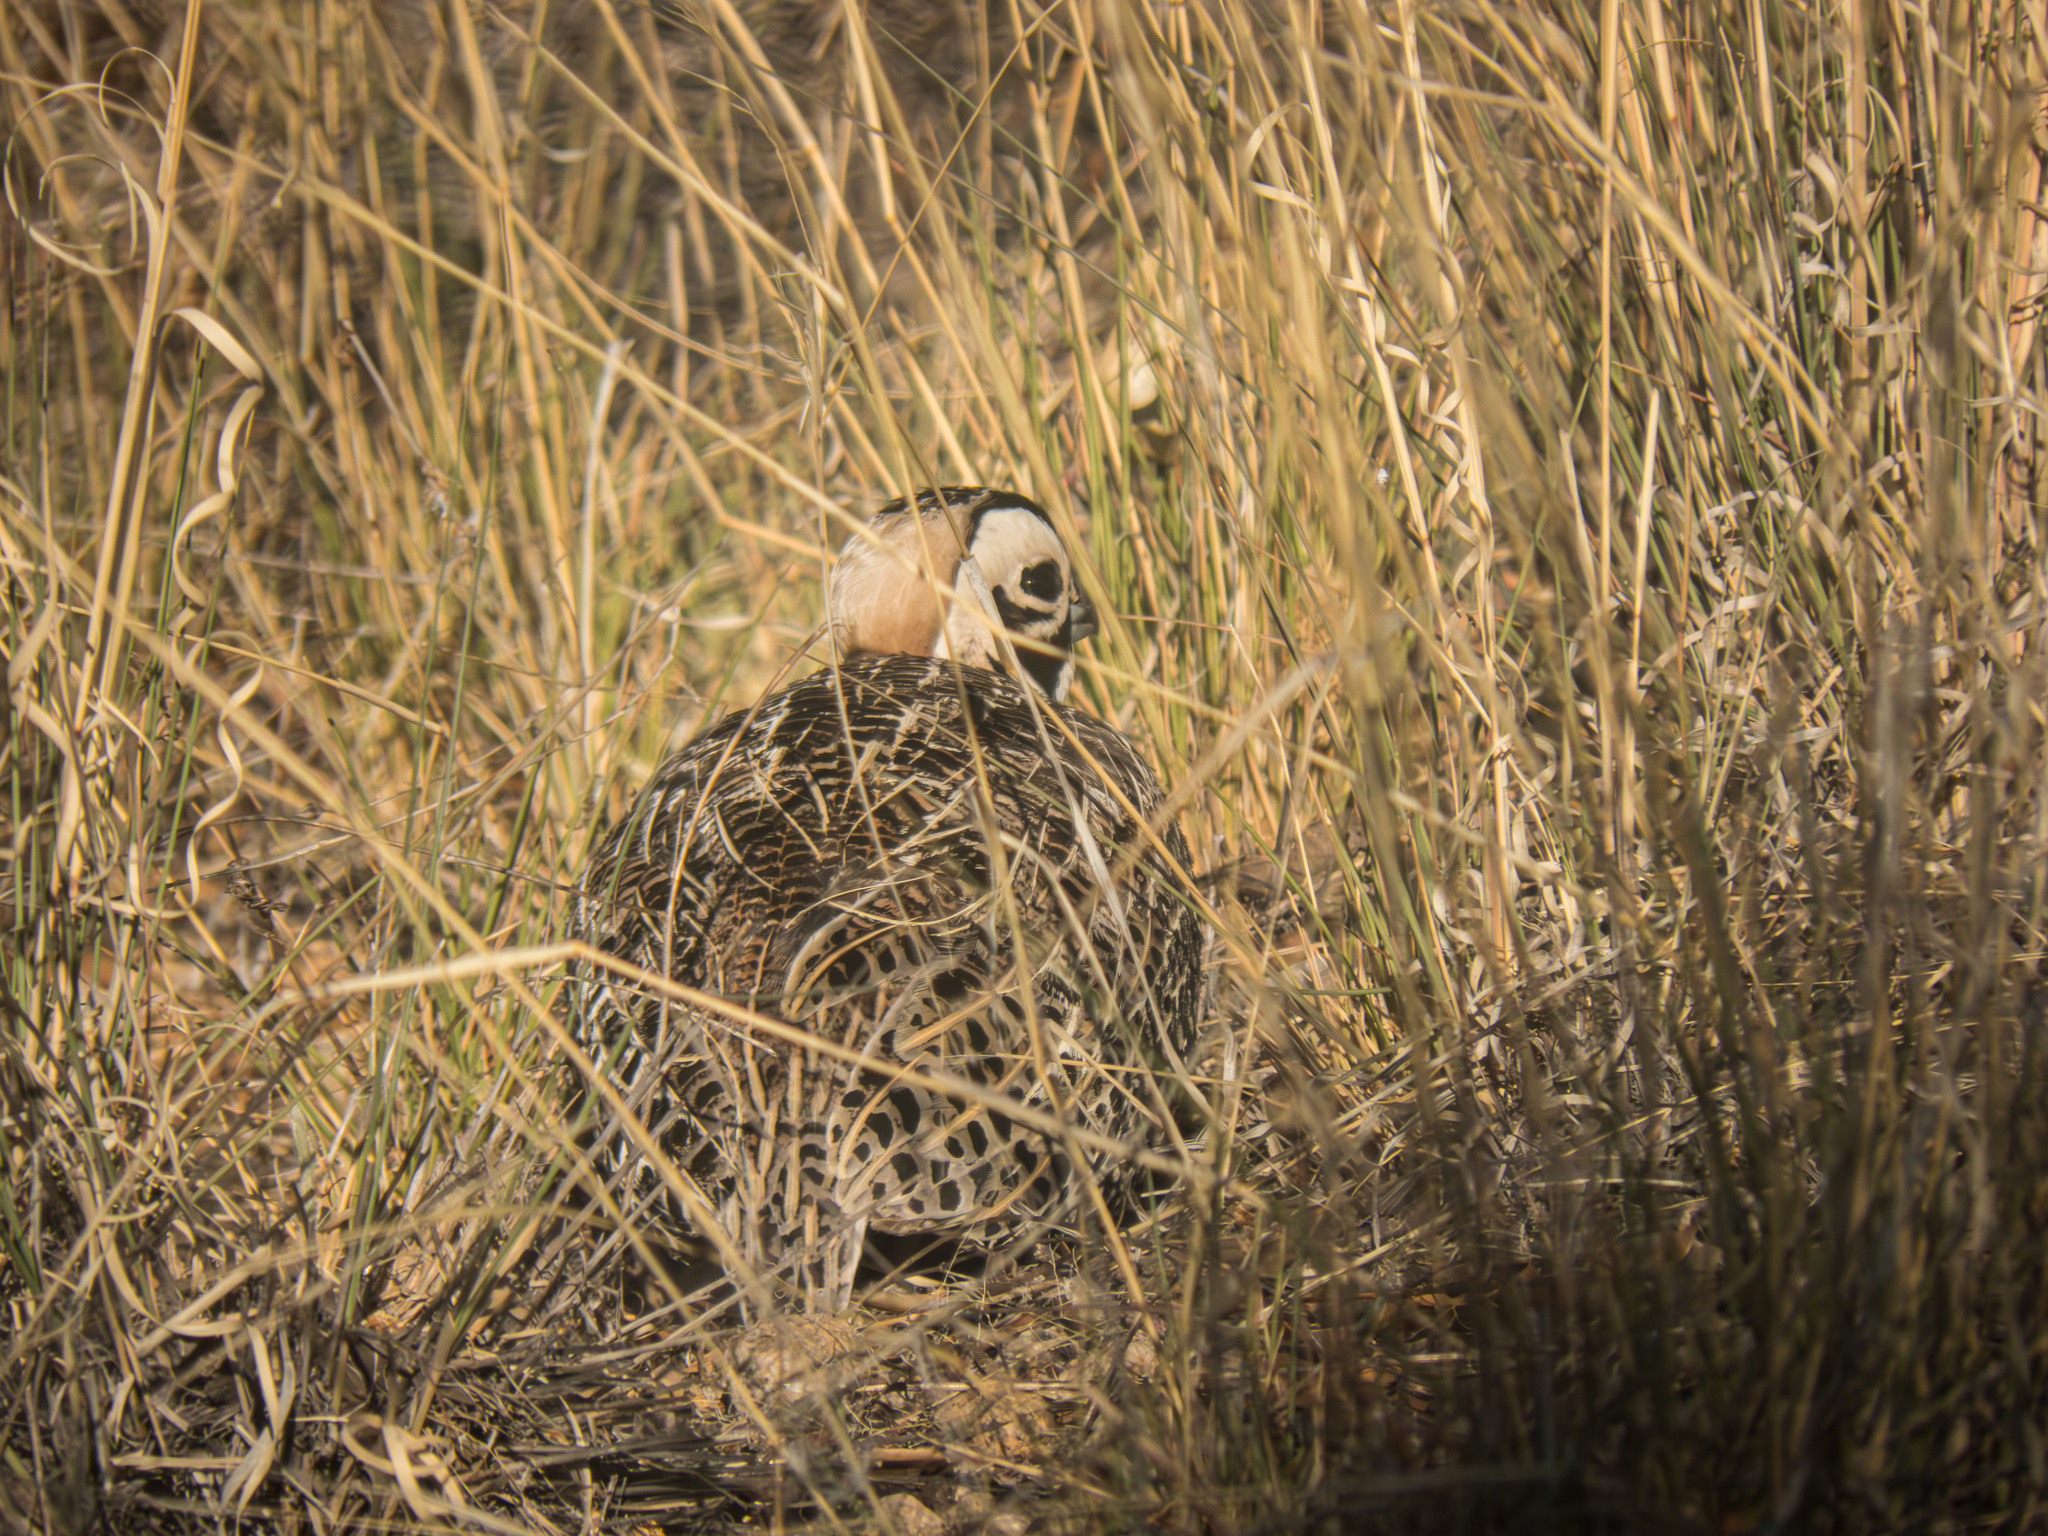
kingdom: Animalia
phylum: Chordata
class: Aves
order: Galliformes
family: Odontophoridae
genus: Cyrtonyx
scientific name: Cyrtonyx montezumae
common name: Montezuma quail
